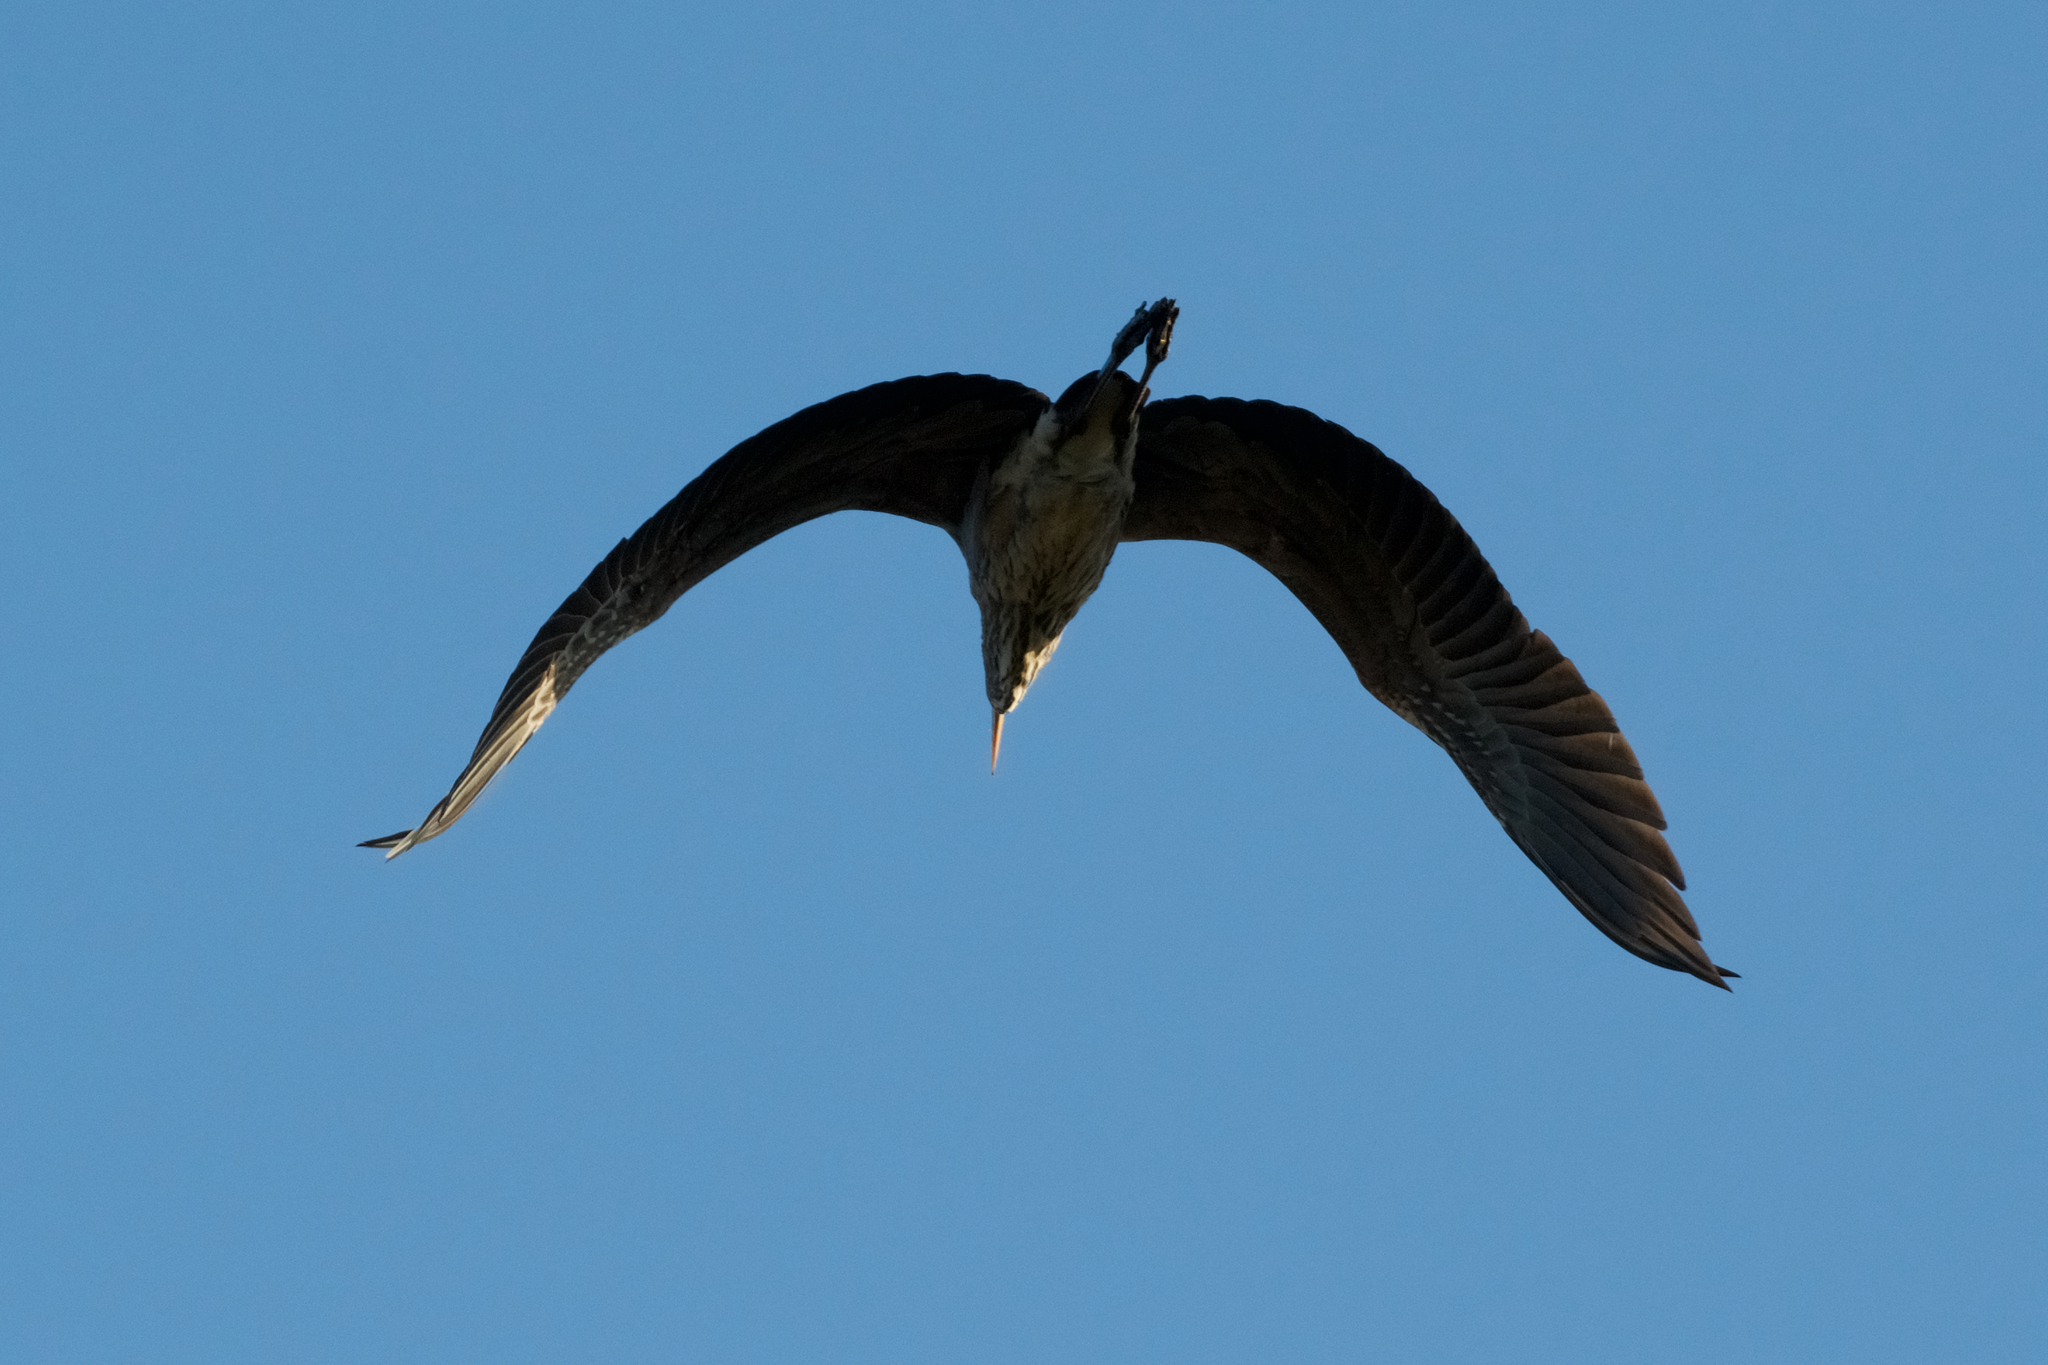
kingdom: Animalia
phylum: Chordata
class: Aves
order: Pelecaniformes
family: Ardeidae
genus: Nycticorax
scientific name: Nycticorax nycticorax
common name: Black-crowned night heron
